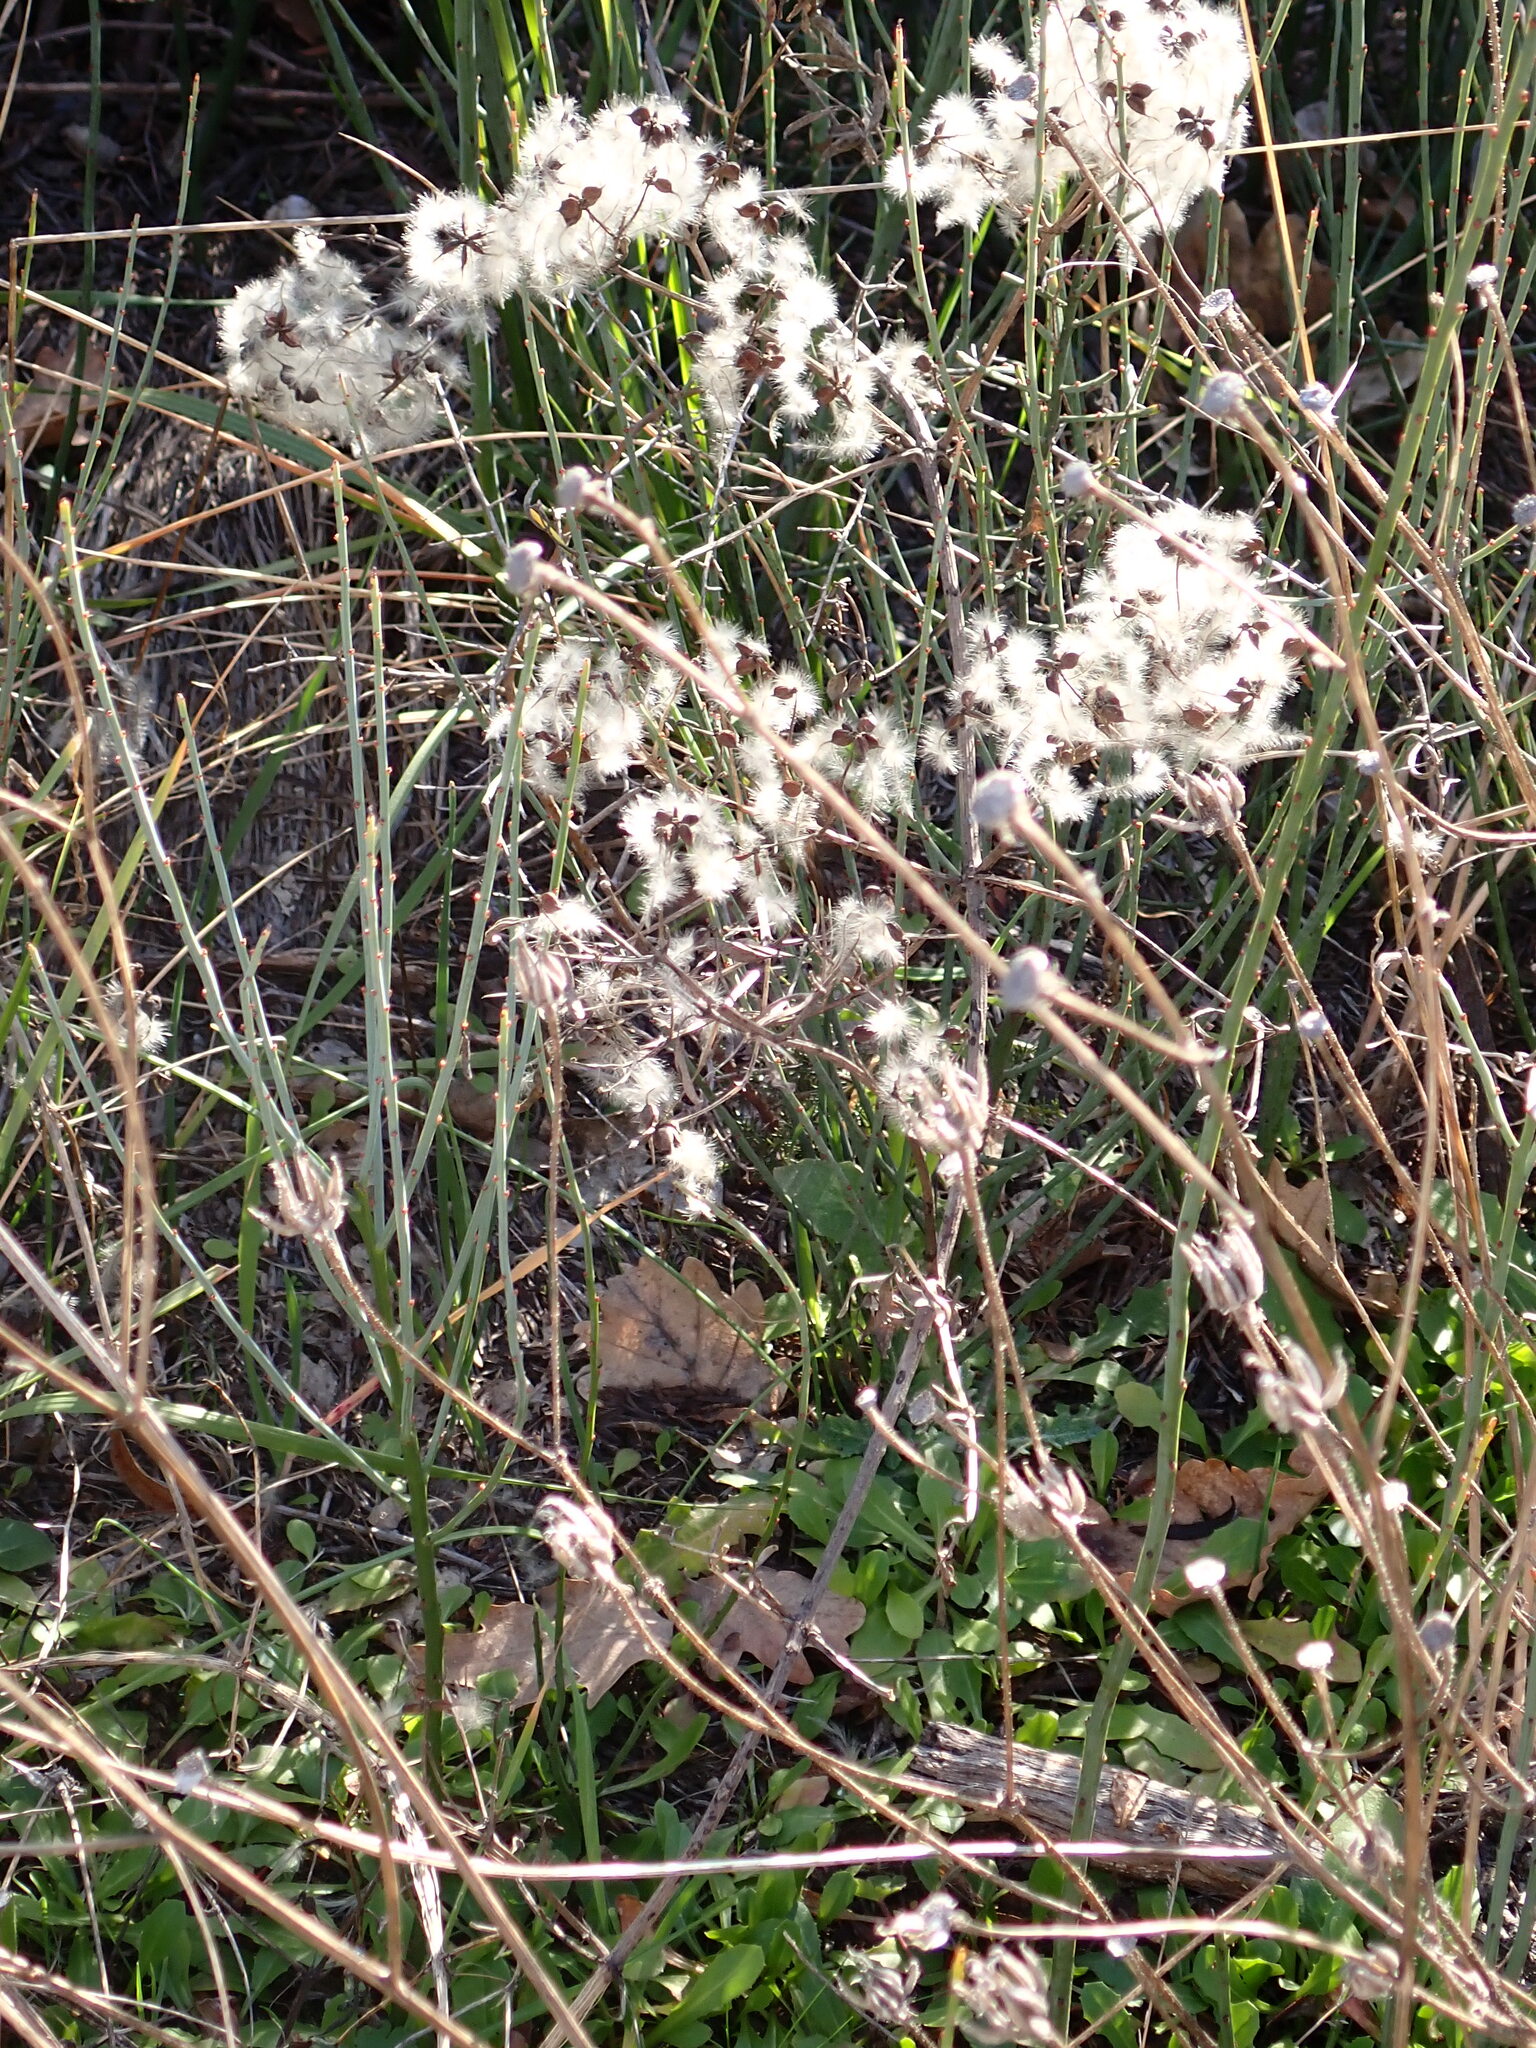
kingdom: Plantae
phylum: Tracheophyta
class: Magnoliopsida
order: Ranunculales
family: Ranunculaceae
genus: Clematis
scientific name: Clematis flammula
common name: Virgin's-bower
